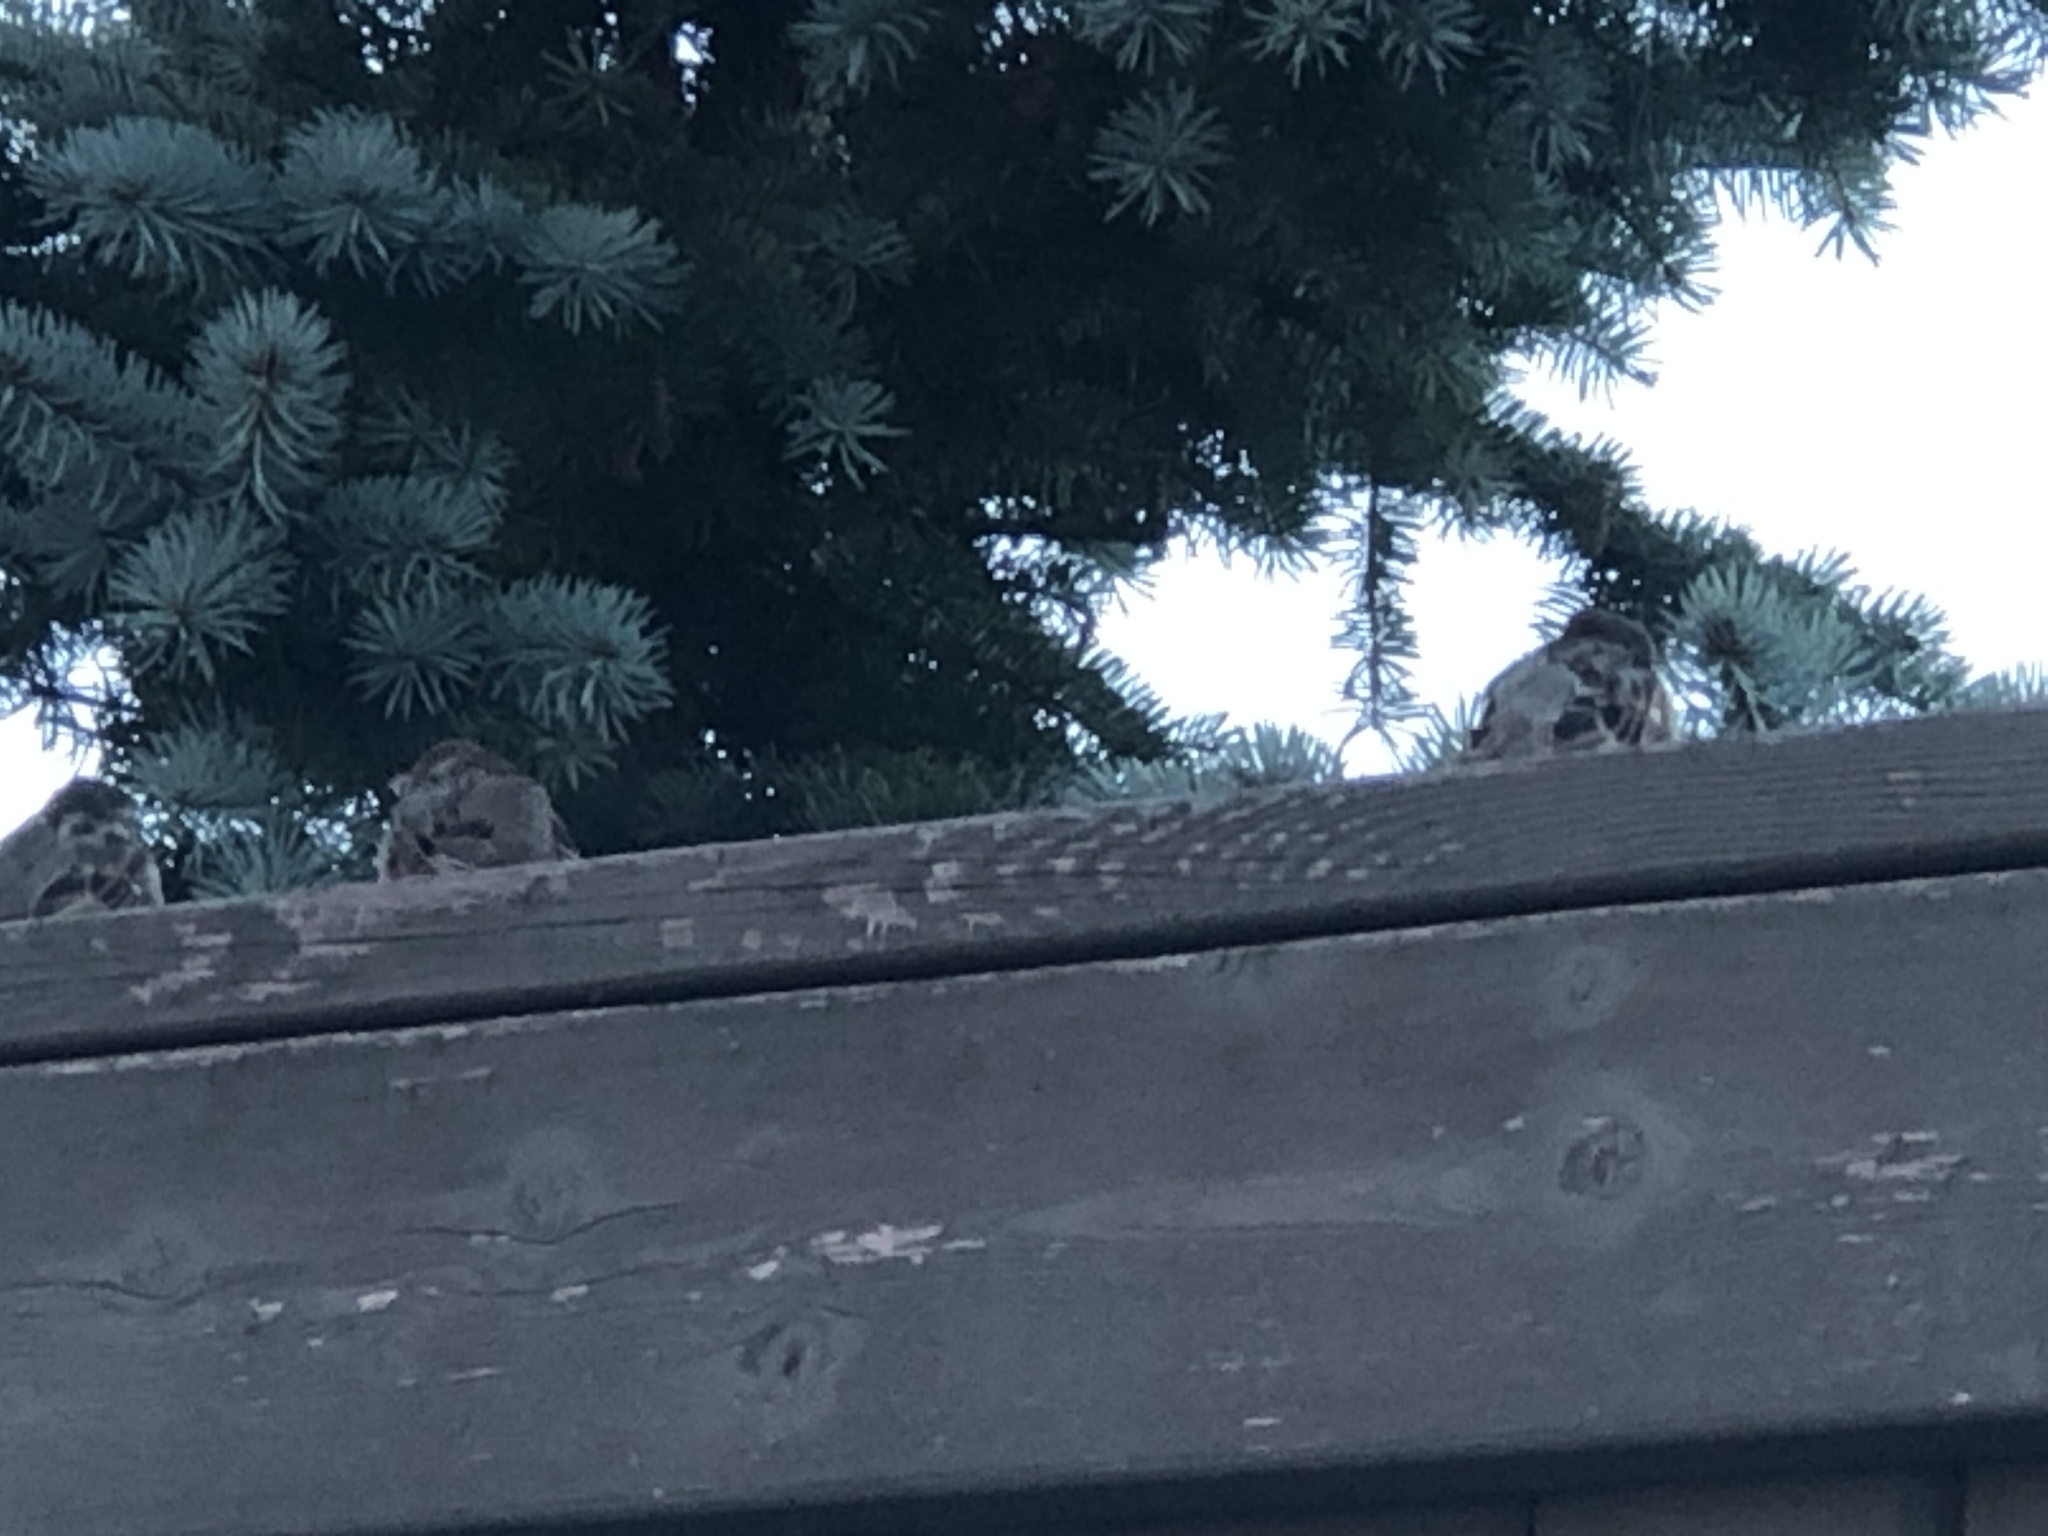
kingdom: Animalia
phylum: Chordata
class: Aves
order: Passeriformes
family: Passeridae
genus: Passer
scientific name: Passer domesticus
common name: House sparrow
